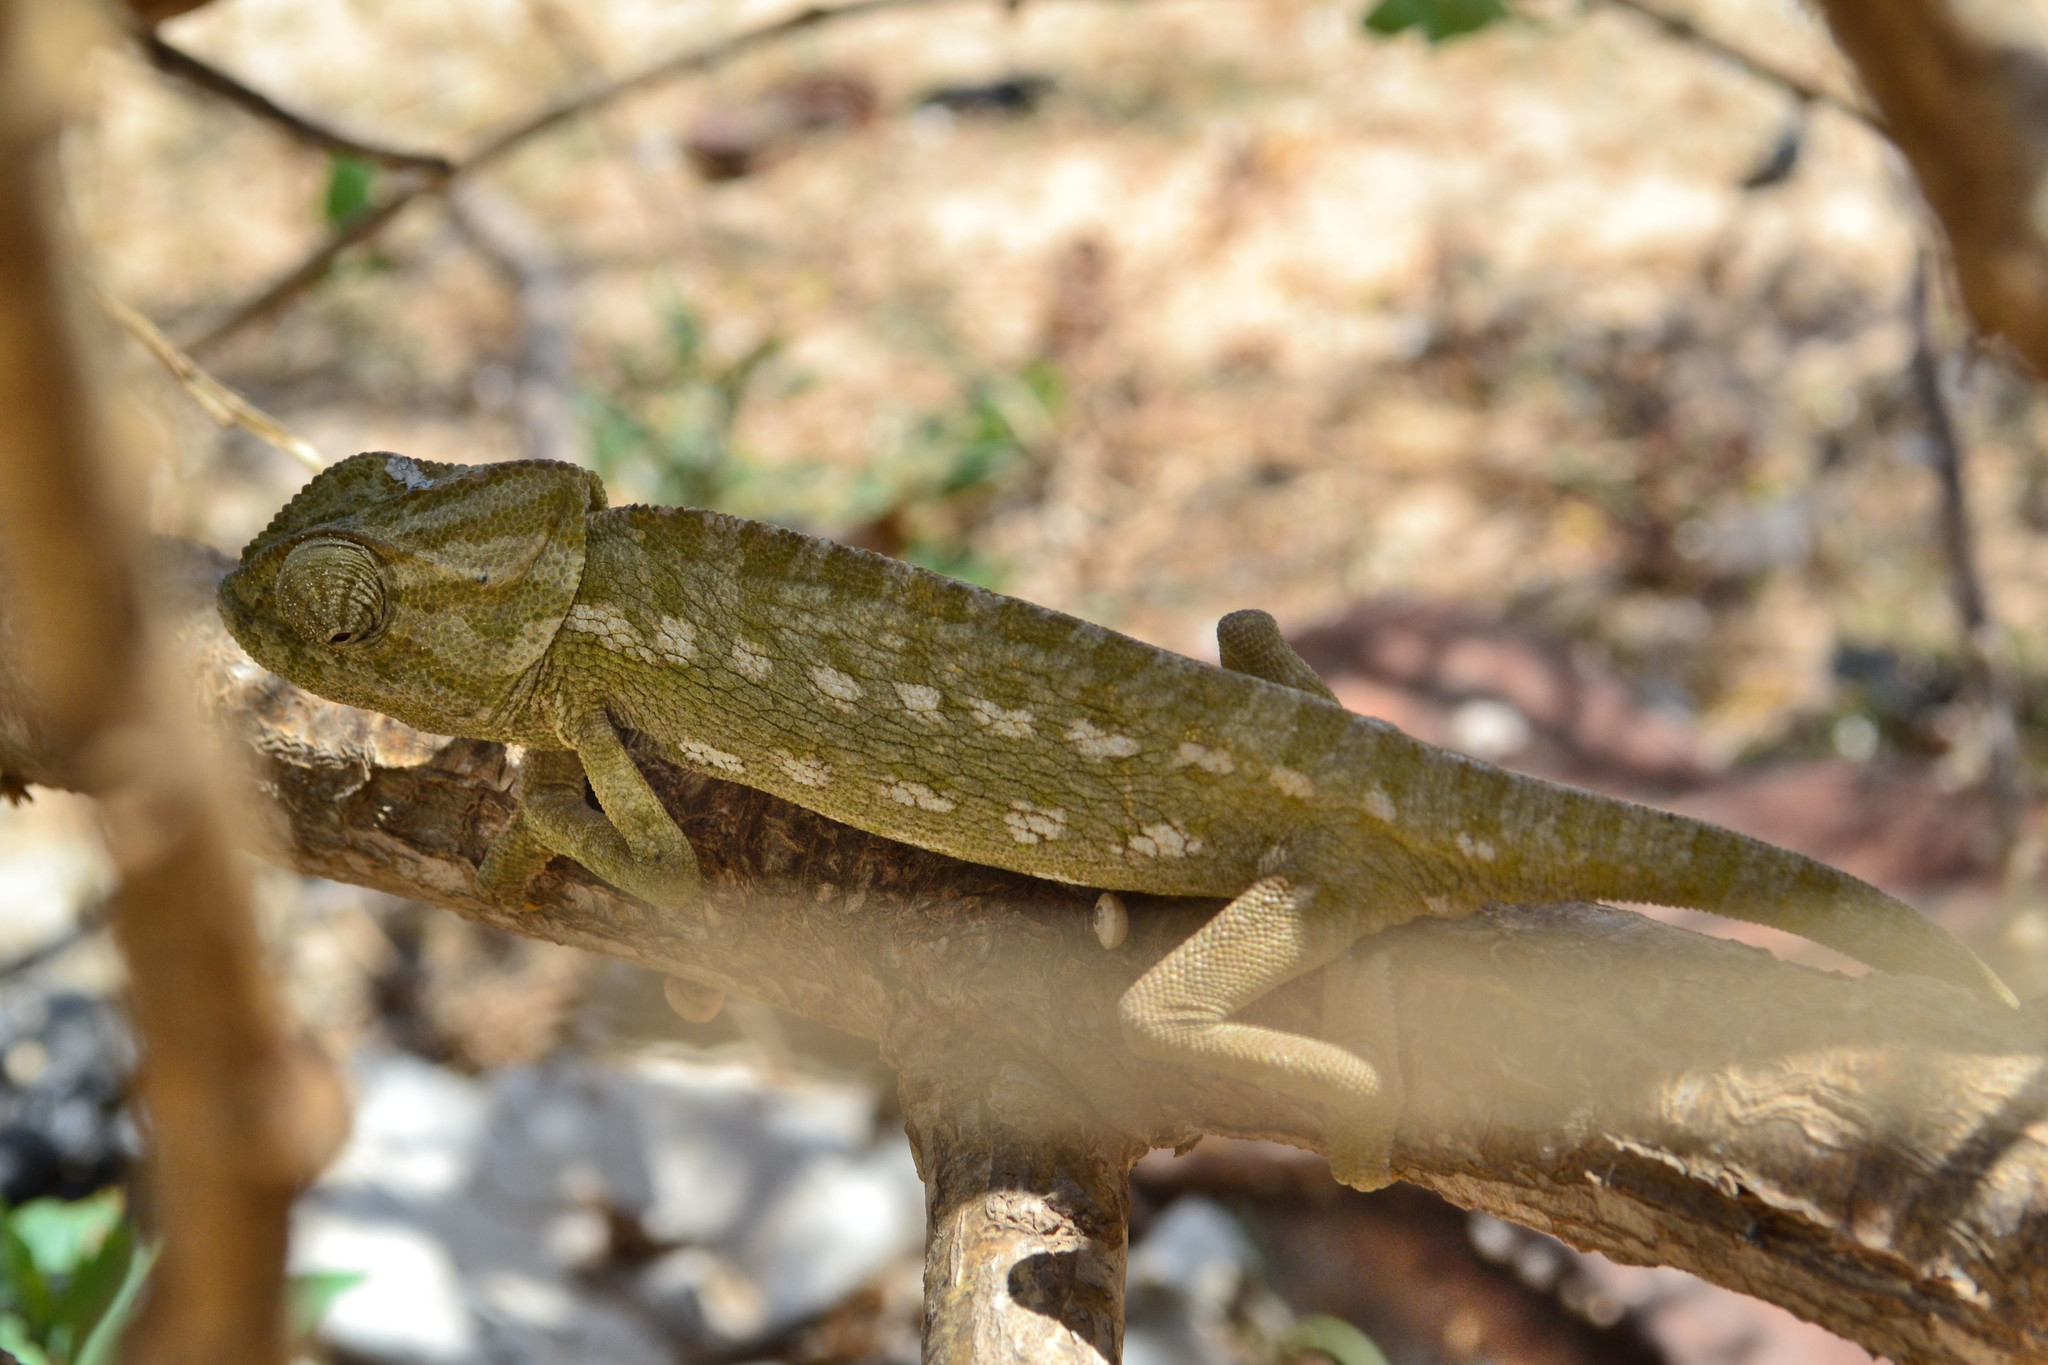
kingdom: Animalia
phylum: Chordata
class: Squamata
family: Chamaeleonidae
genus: Chamaeleo
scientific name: Chamaeleo chamaeleon
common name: Mediterranean chameleon
